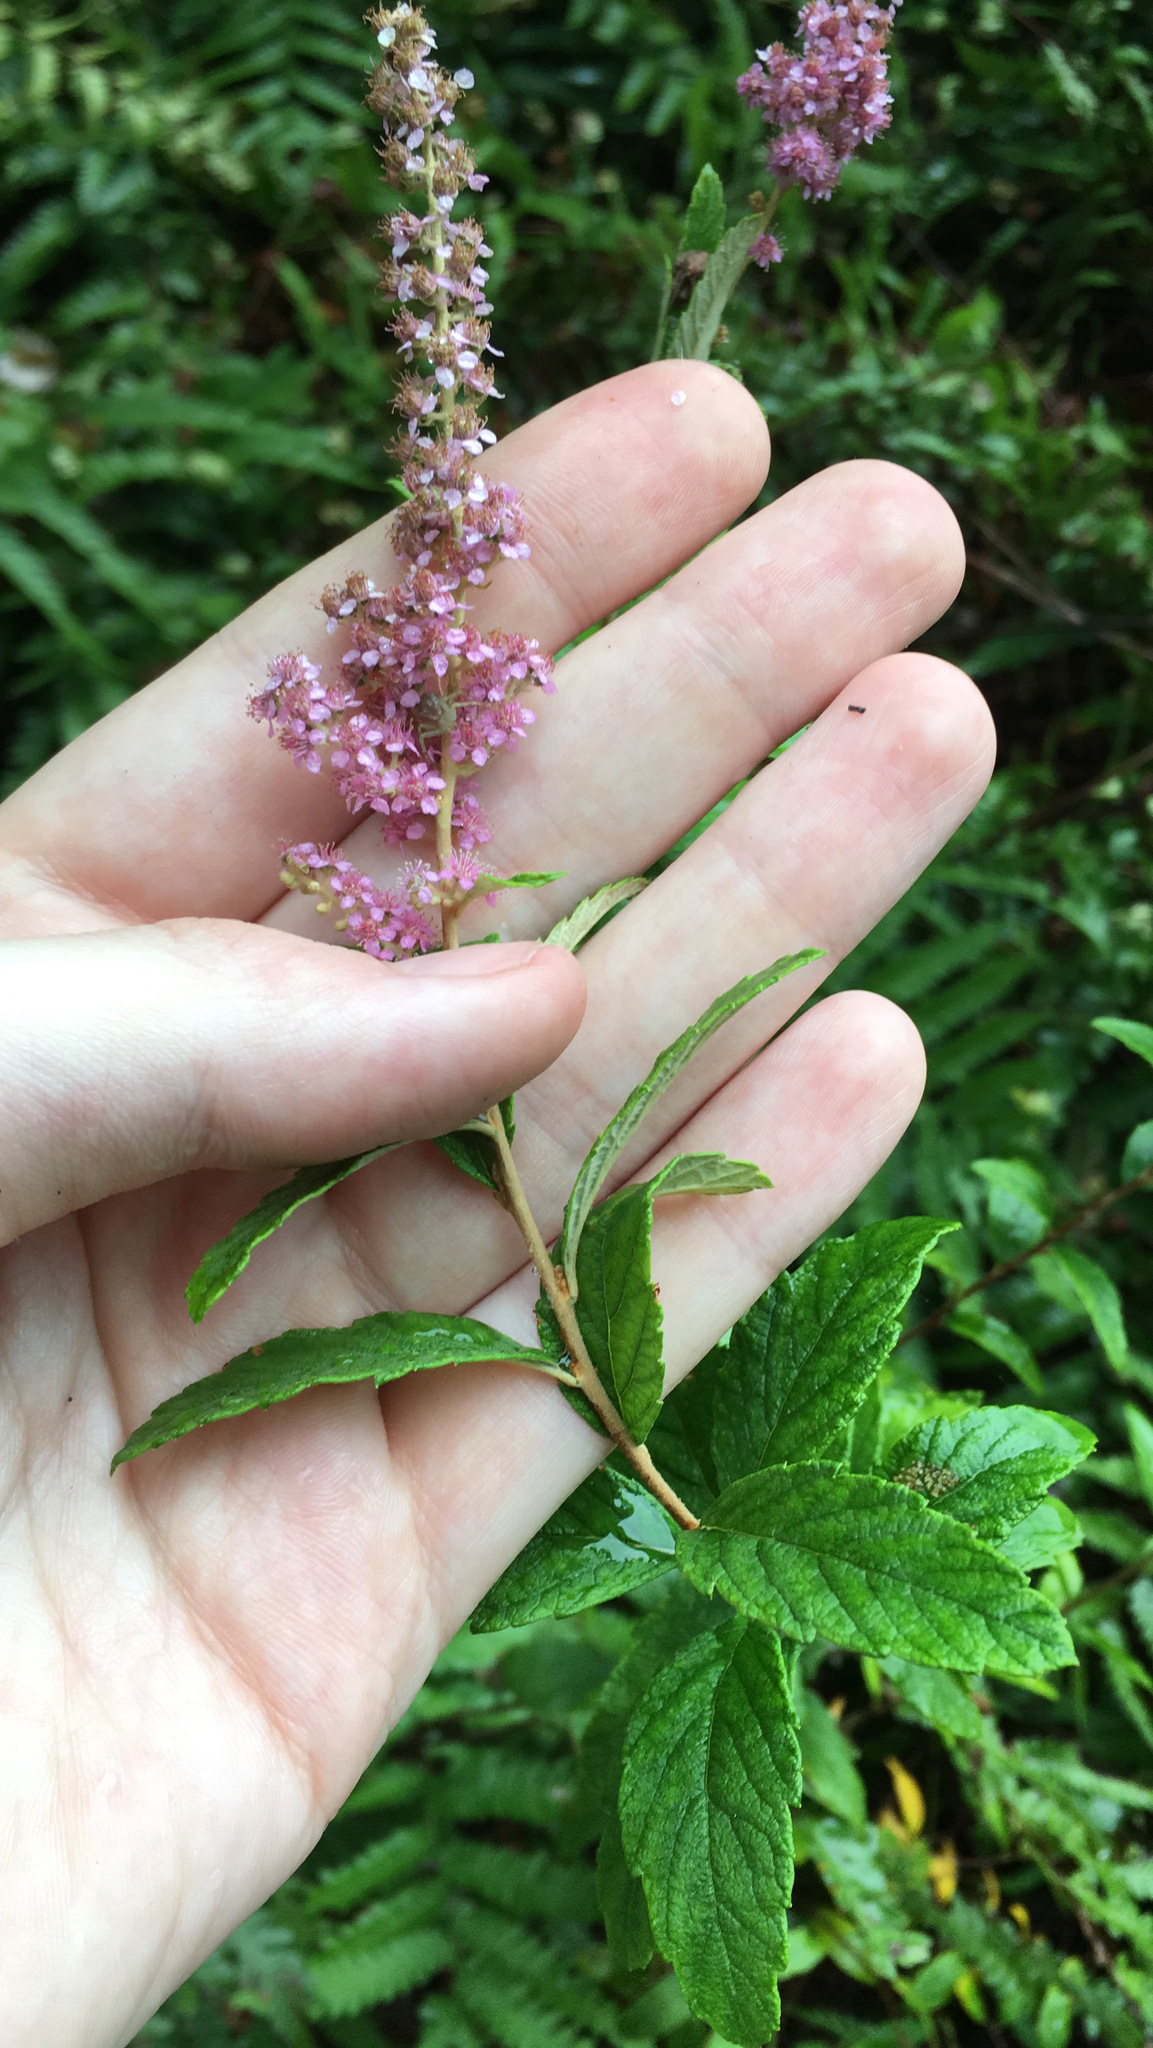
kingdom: Plantae
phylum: Tracheophyta
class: Magnoliopsida
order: Rosales
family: Rosaceae
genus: Spiraea
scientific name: Spiraea tomentosa
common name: Hardhack
